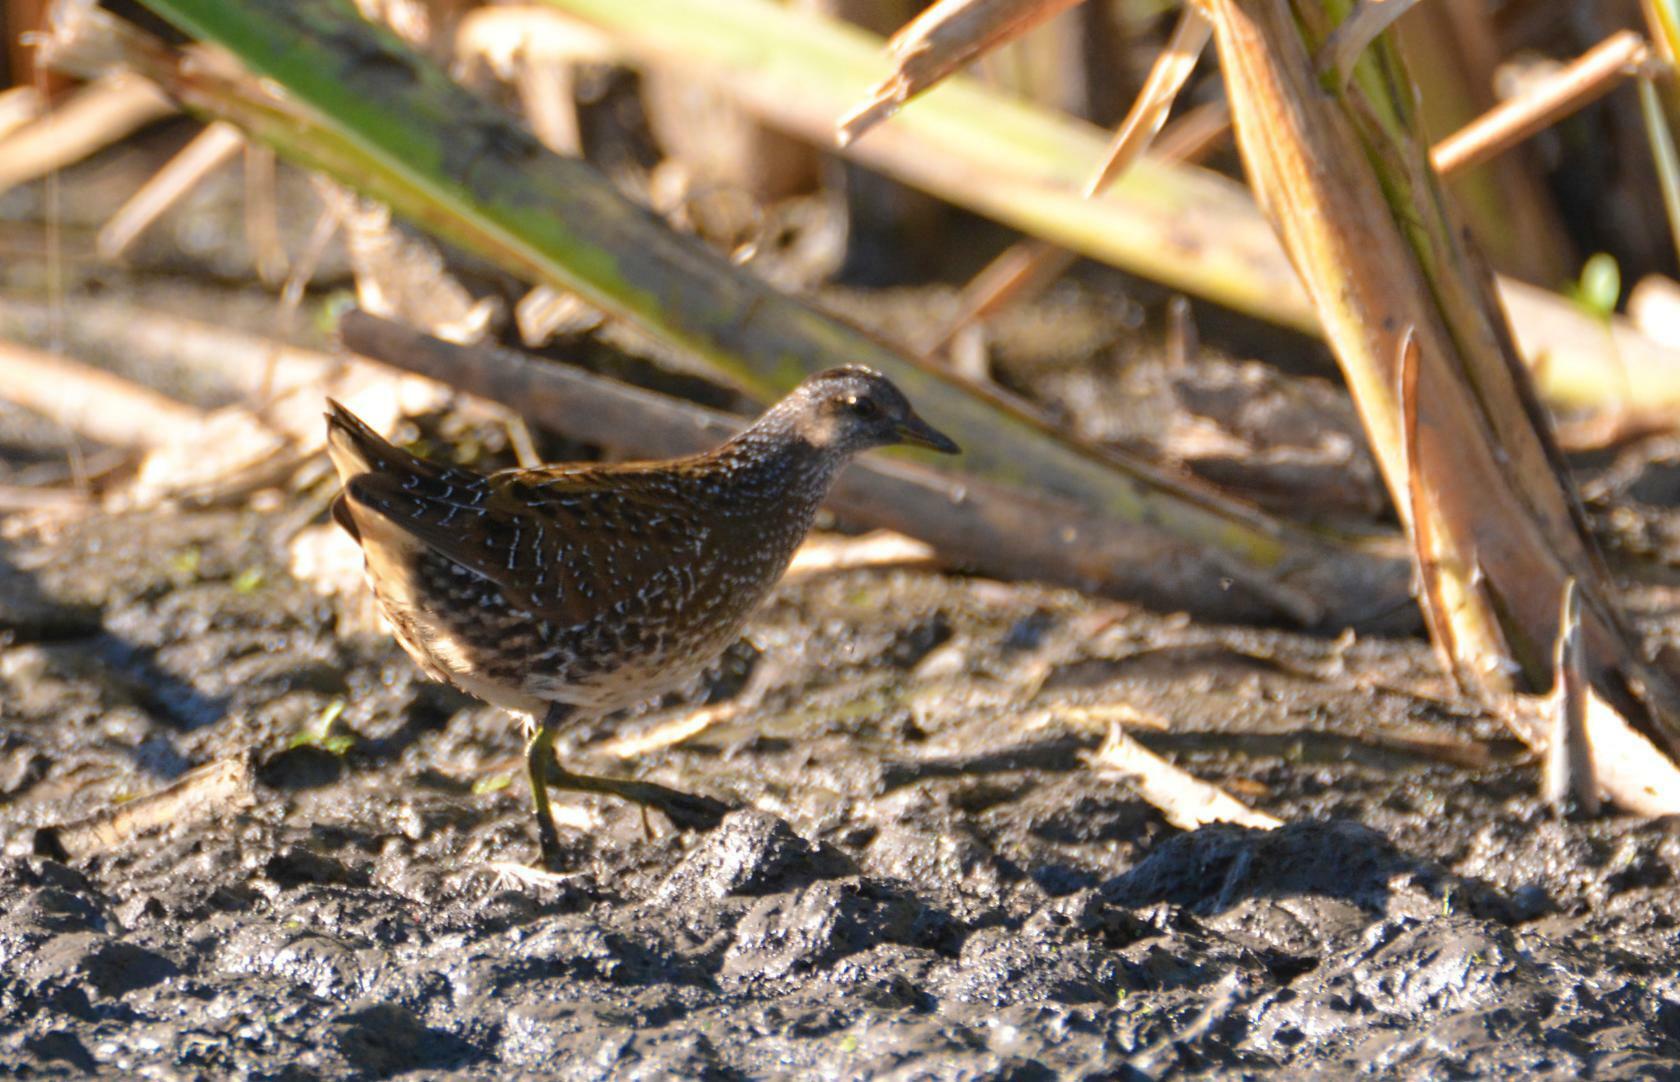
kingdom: Animalia
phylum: Chordata
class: Aves
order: Gruiformes
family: Rallidae
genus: Porzana
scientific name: Porzana porzana
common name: Spotted crake
